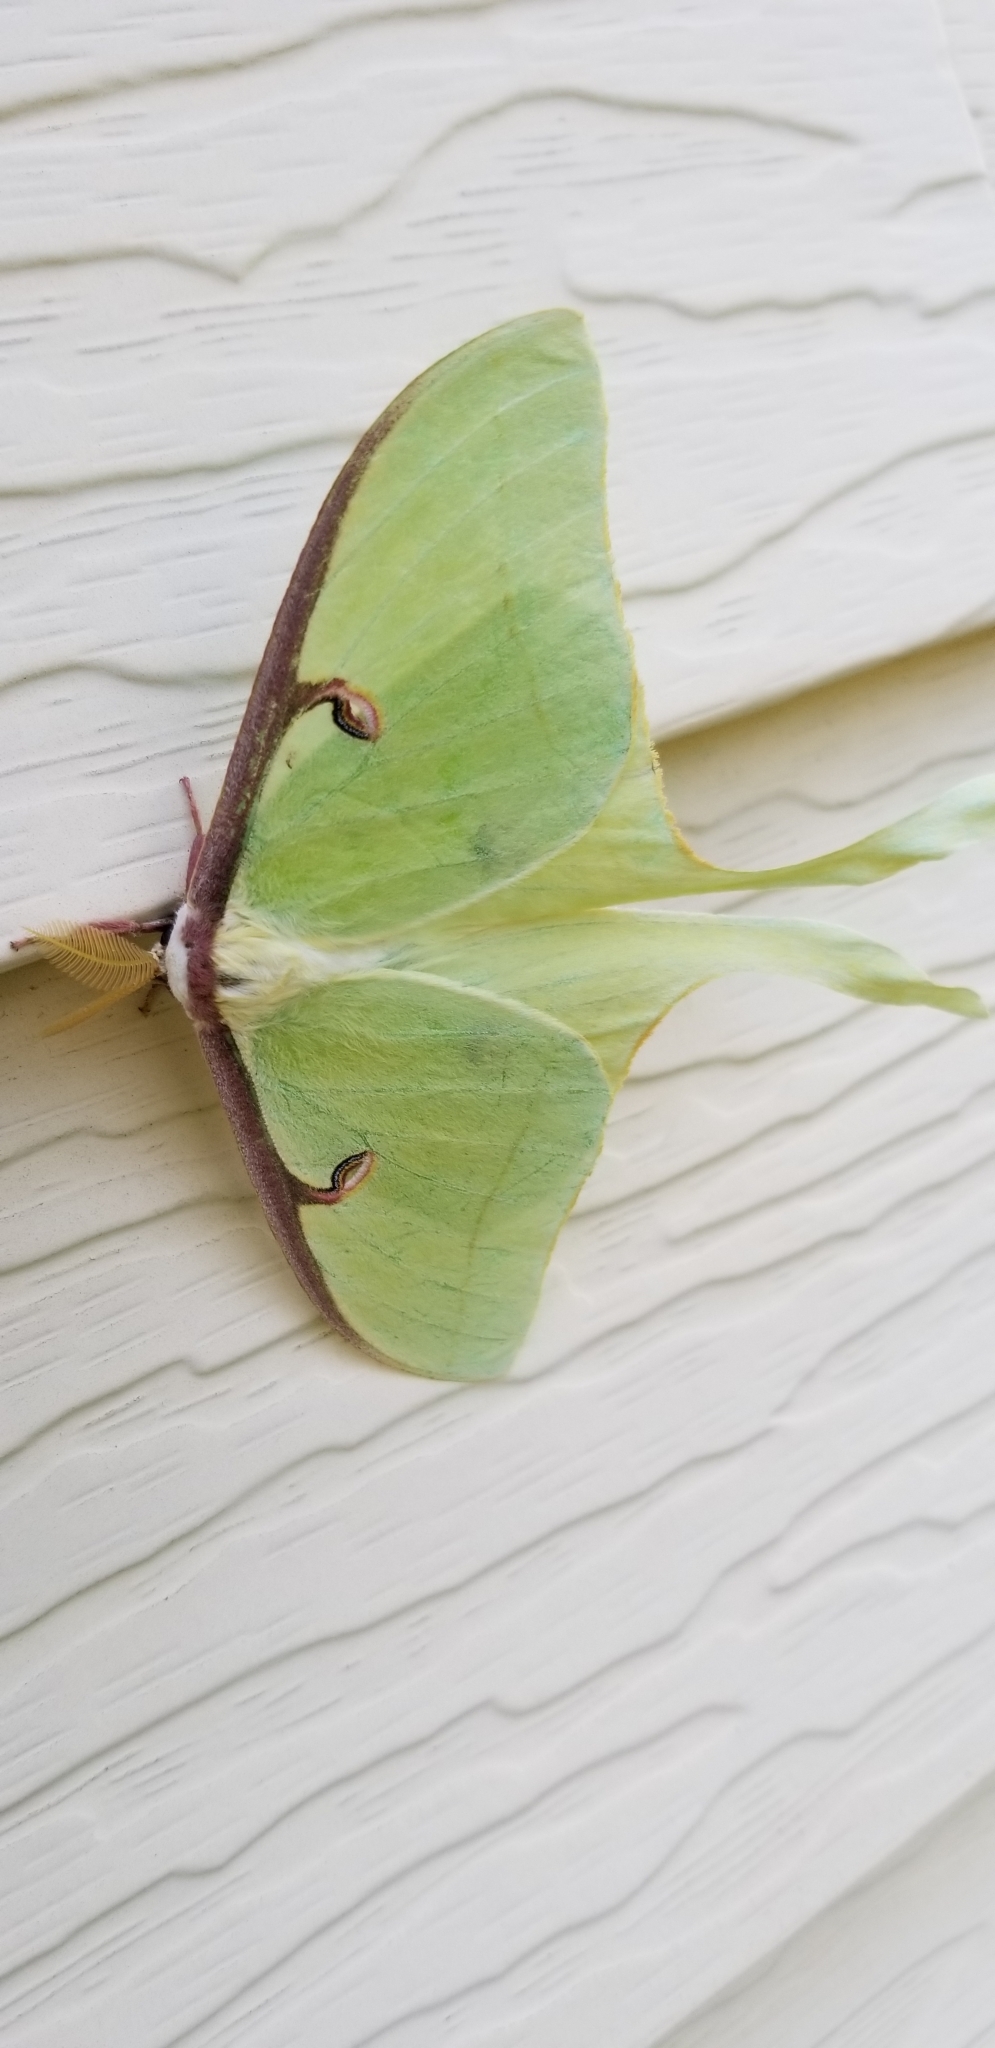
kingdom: Animalia
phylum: Arthropoda
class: Insecta
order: Lepidoptera
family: Saturniidae
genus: Actias
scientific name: Actias luna
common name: Luna moth
